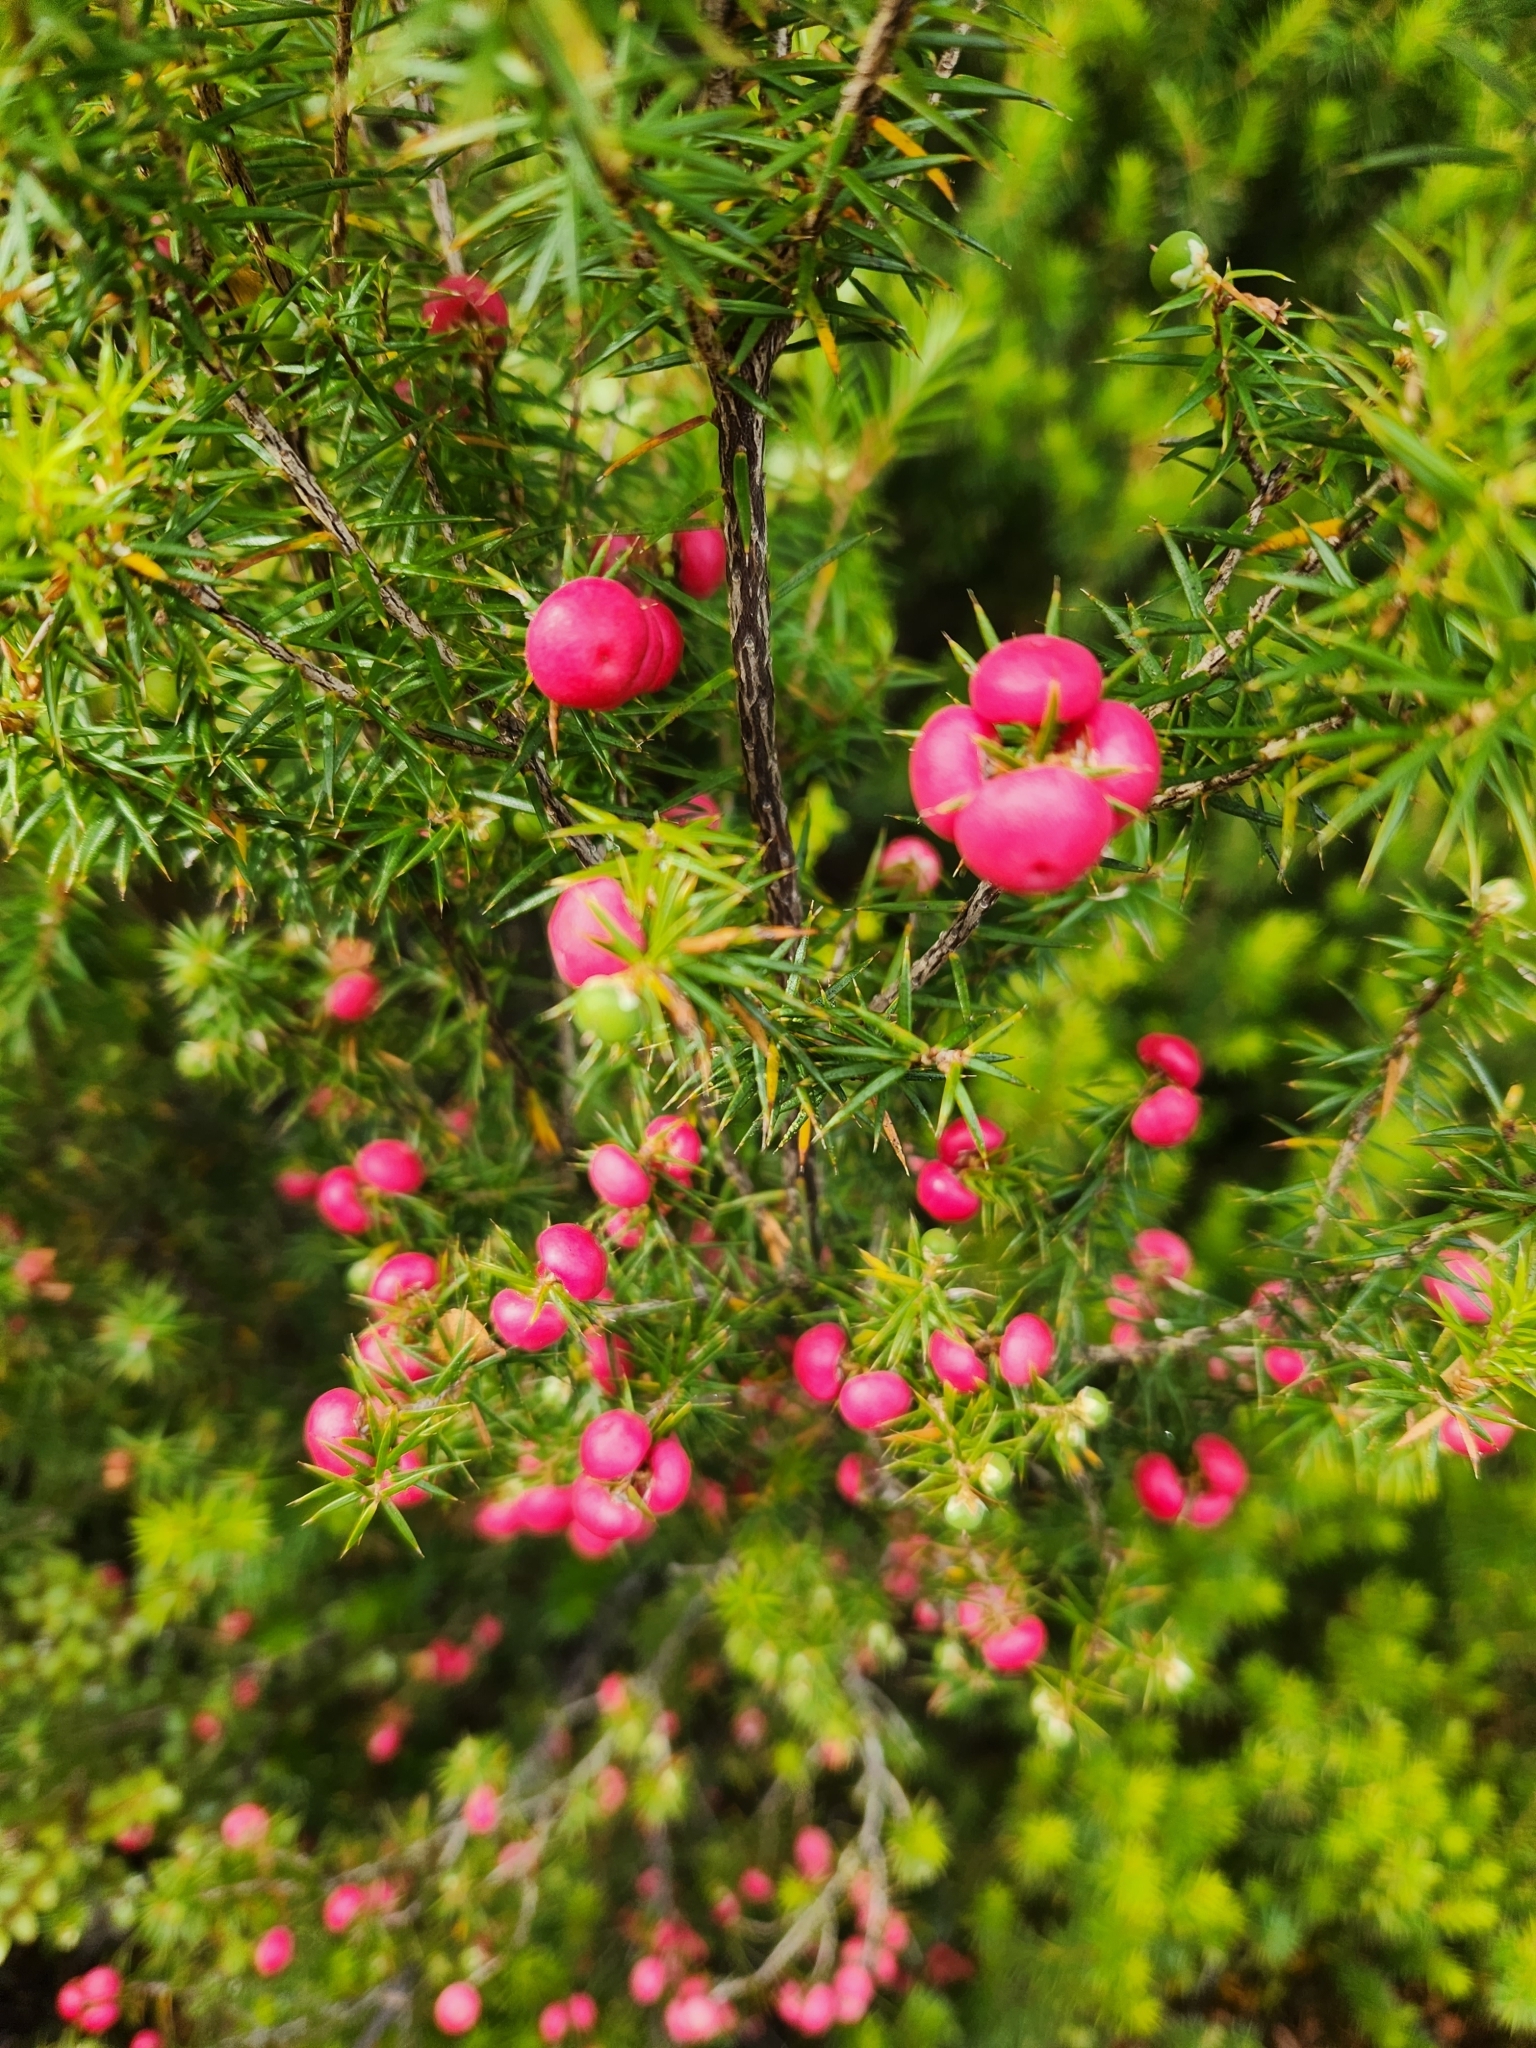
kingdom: Plantae
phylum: Tracheophyta
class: Magnoliopsida
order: Ericales
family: Ericaceae
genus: Leptecophylla
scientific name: Leptecophylla juniperina
